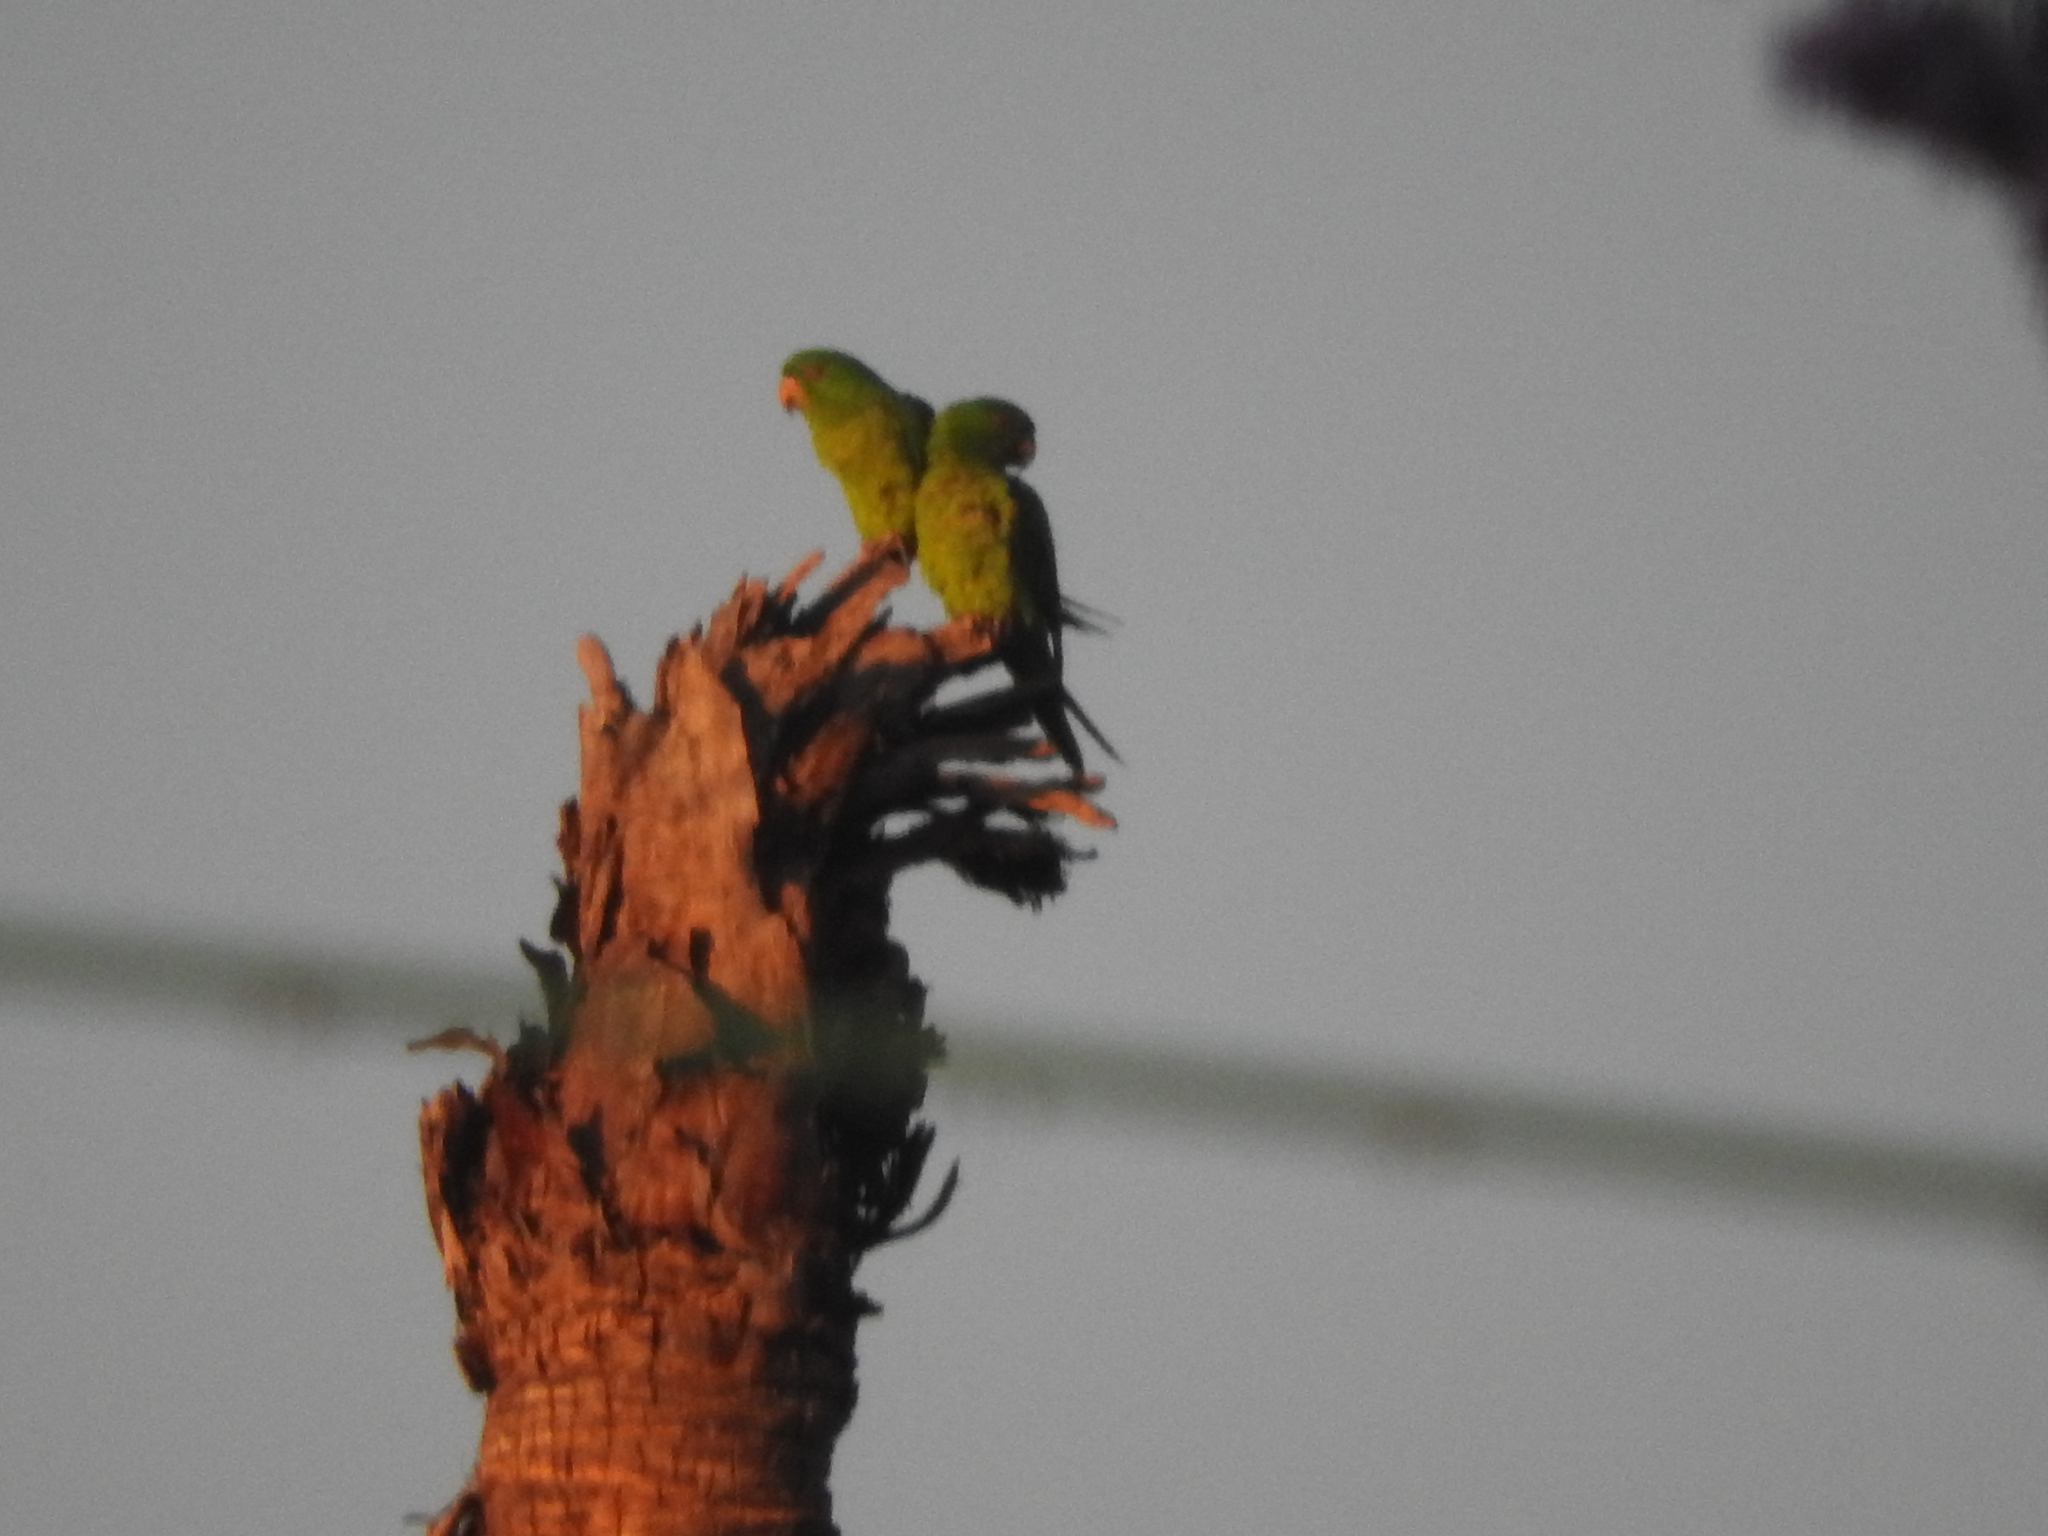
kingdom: Animalia
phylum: Chordata
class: Aves
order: Psittaciformes
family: Psittacidae
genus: Aratinga
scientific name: Aratinga holochlora
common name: Green parakeet
